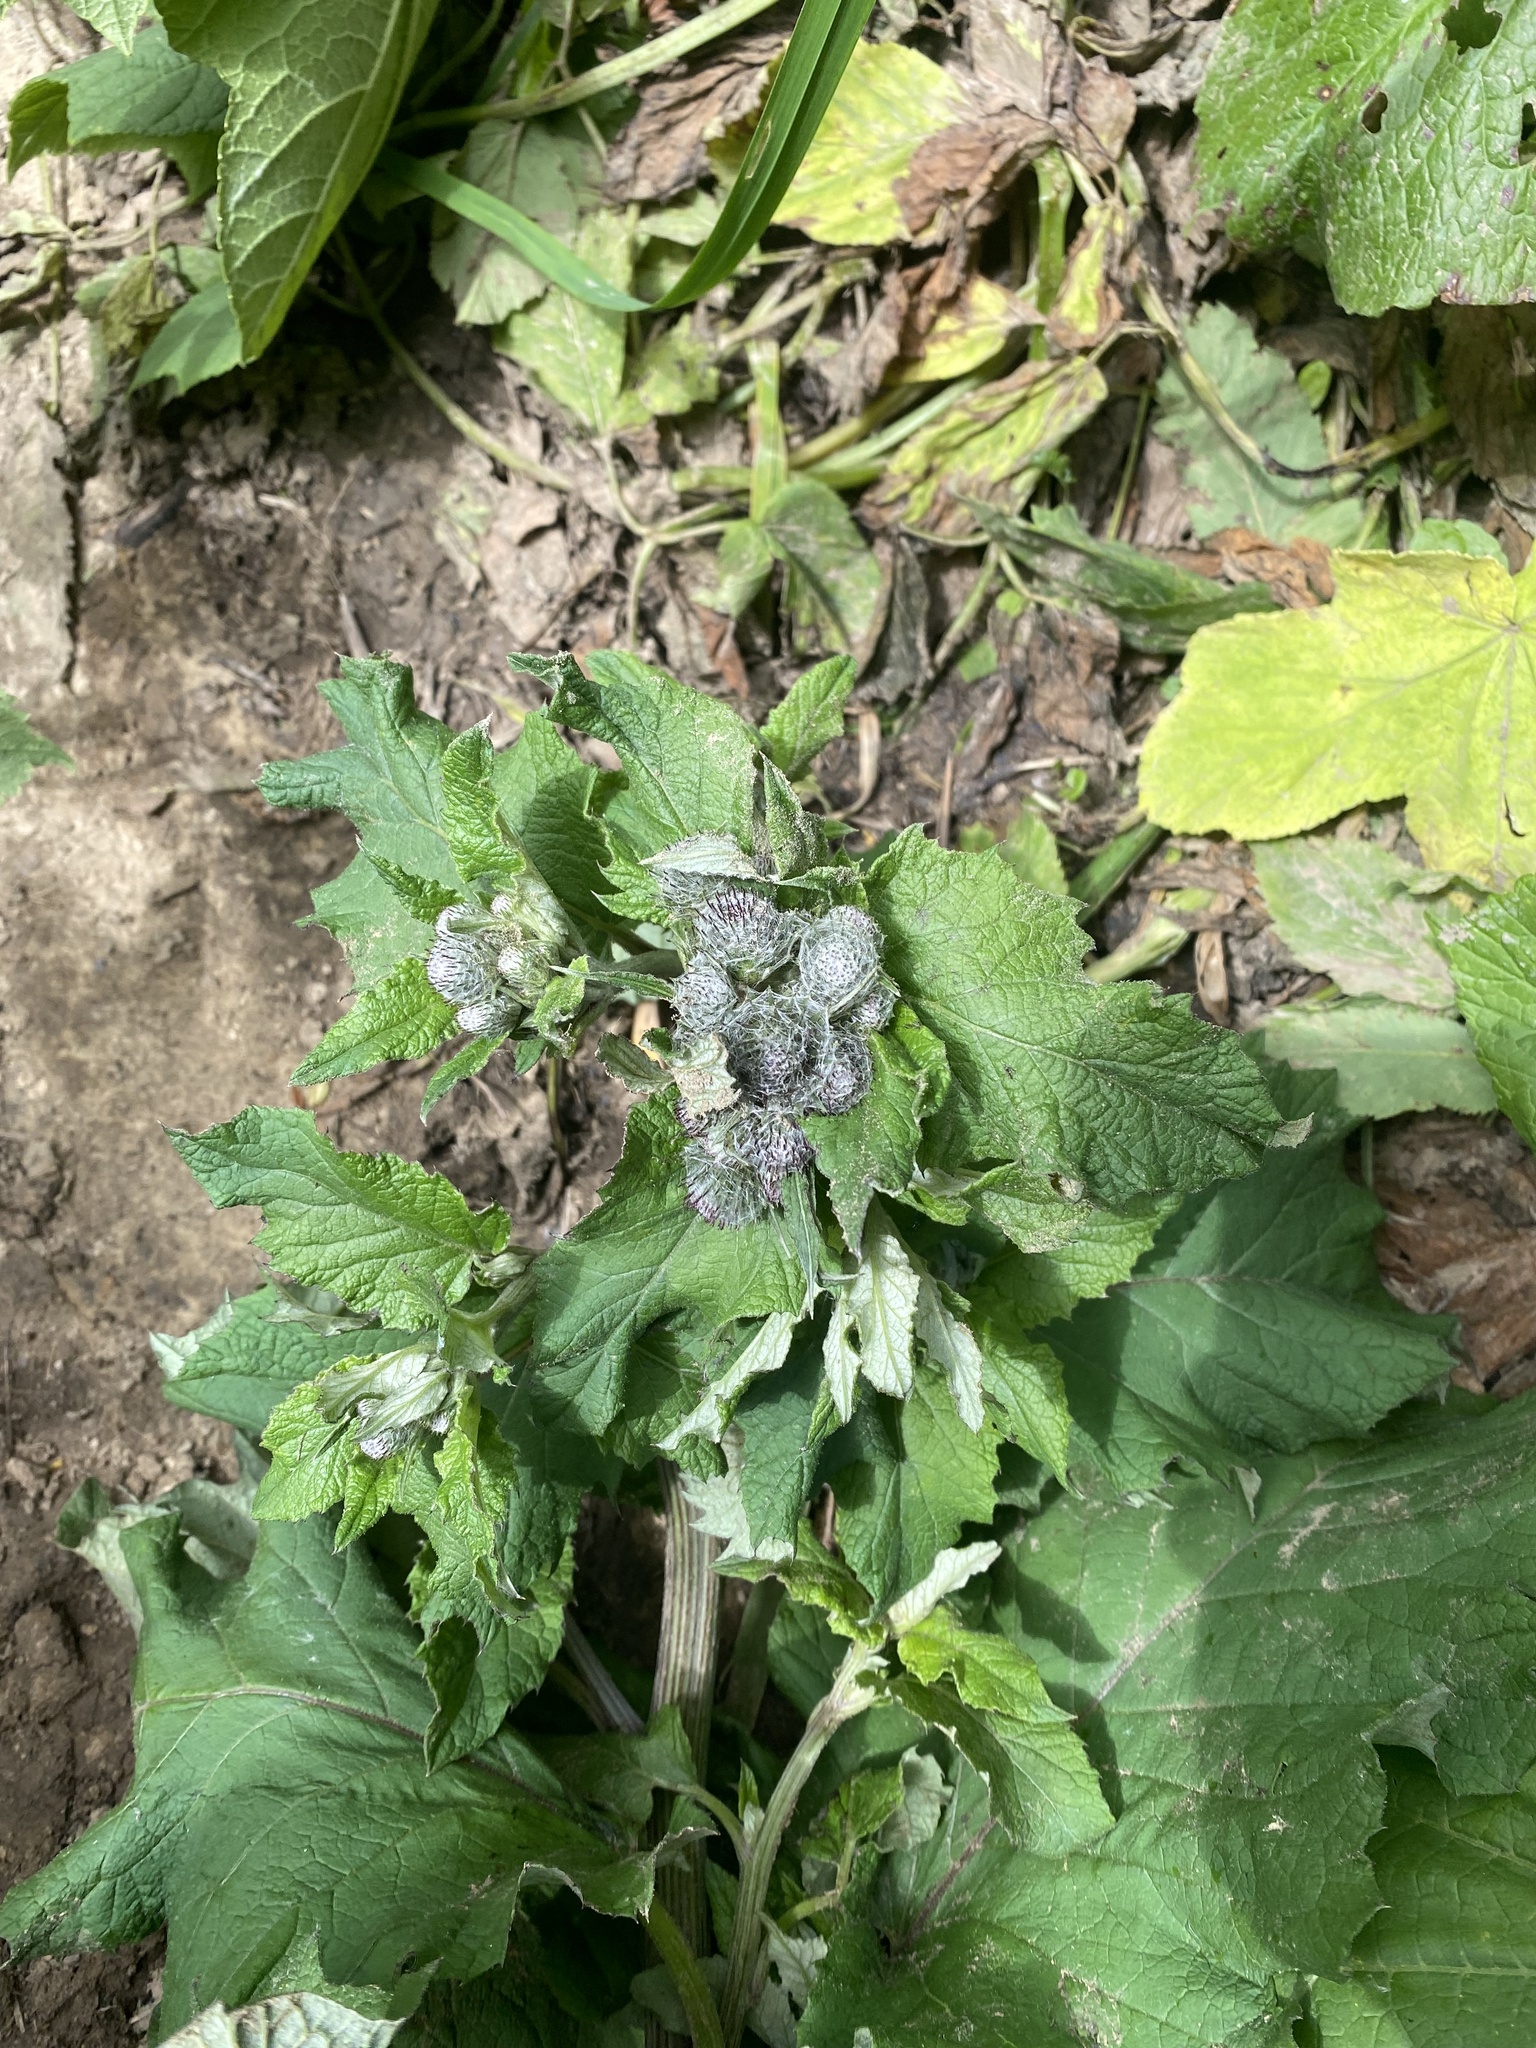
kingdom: Plantae
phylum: Tracheophyta
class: Magnoliopsida
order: Asterales
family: Asteraceae
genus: Arctium
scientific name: Arctium tomentosum
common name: Woolly burdock
